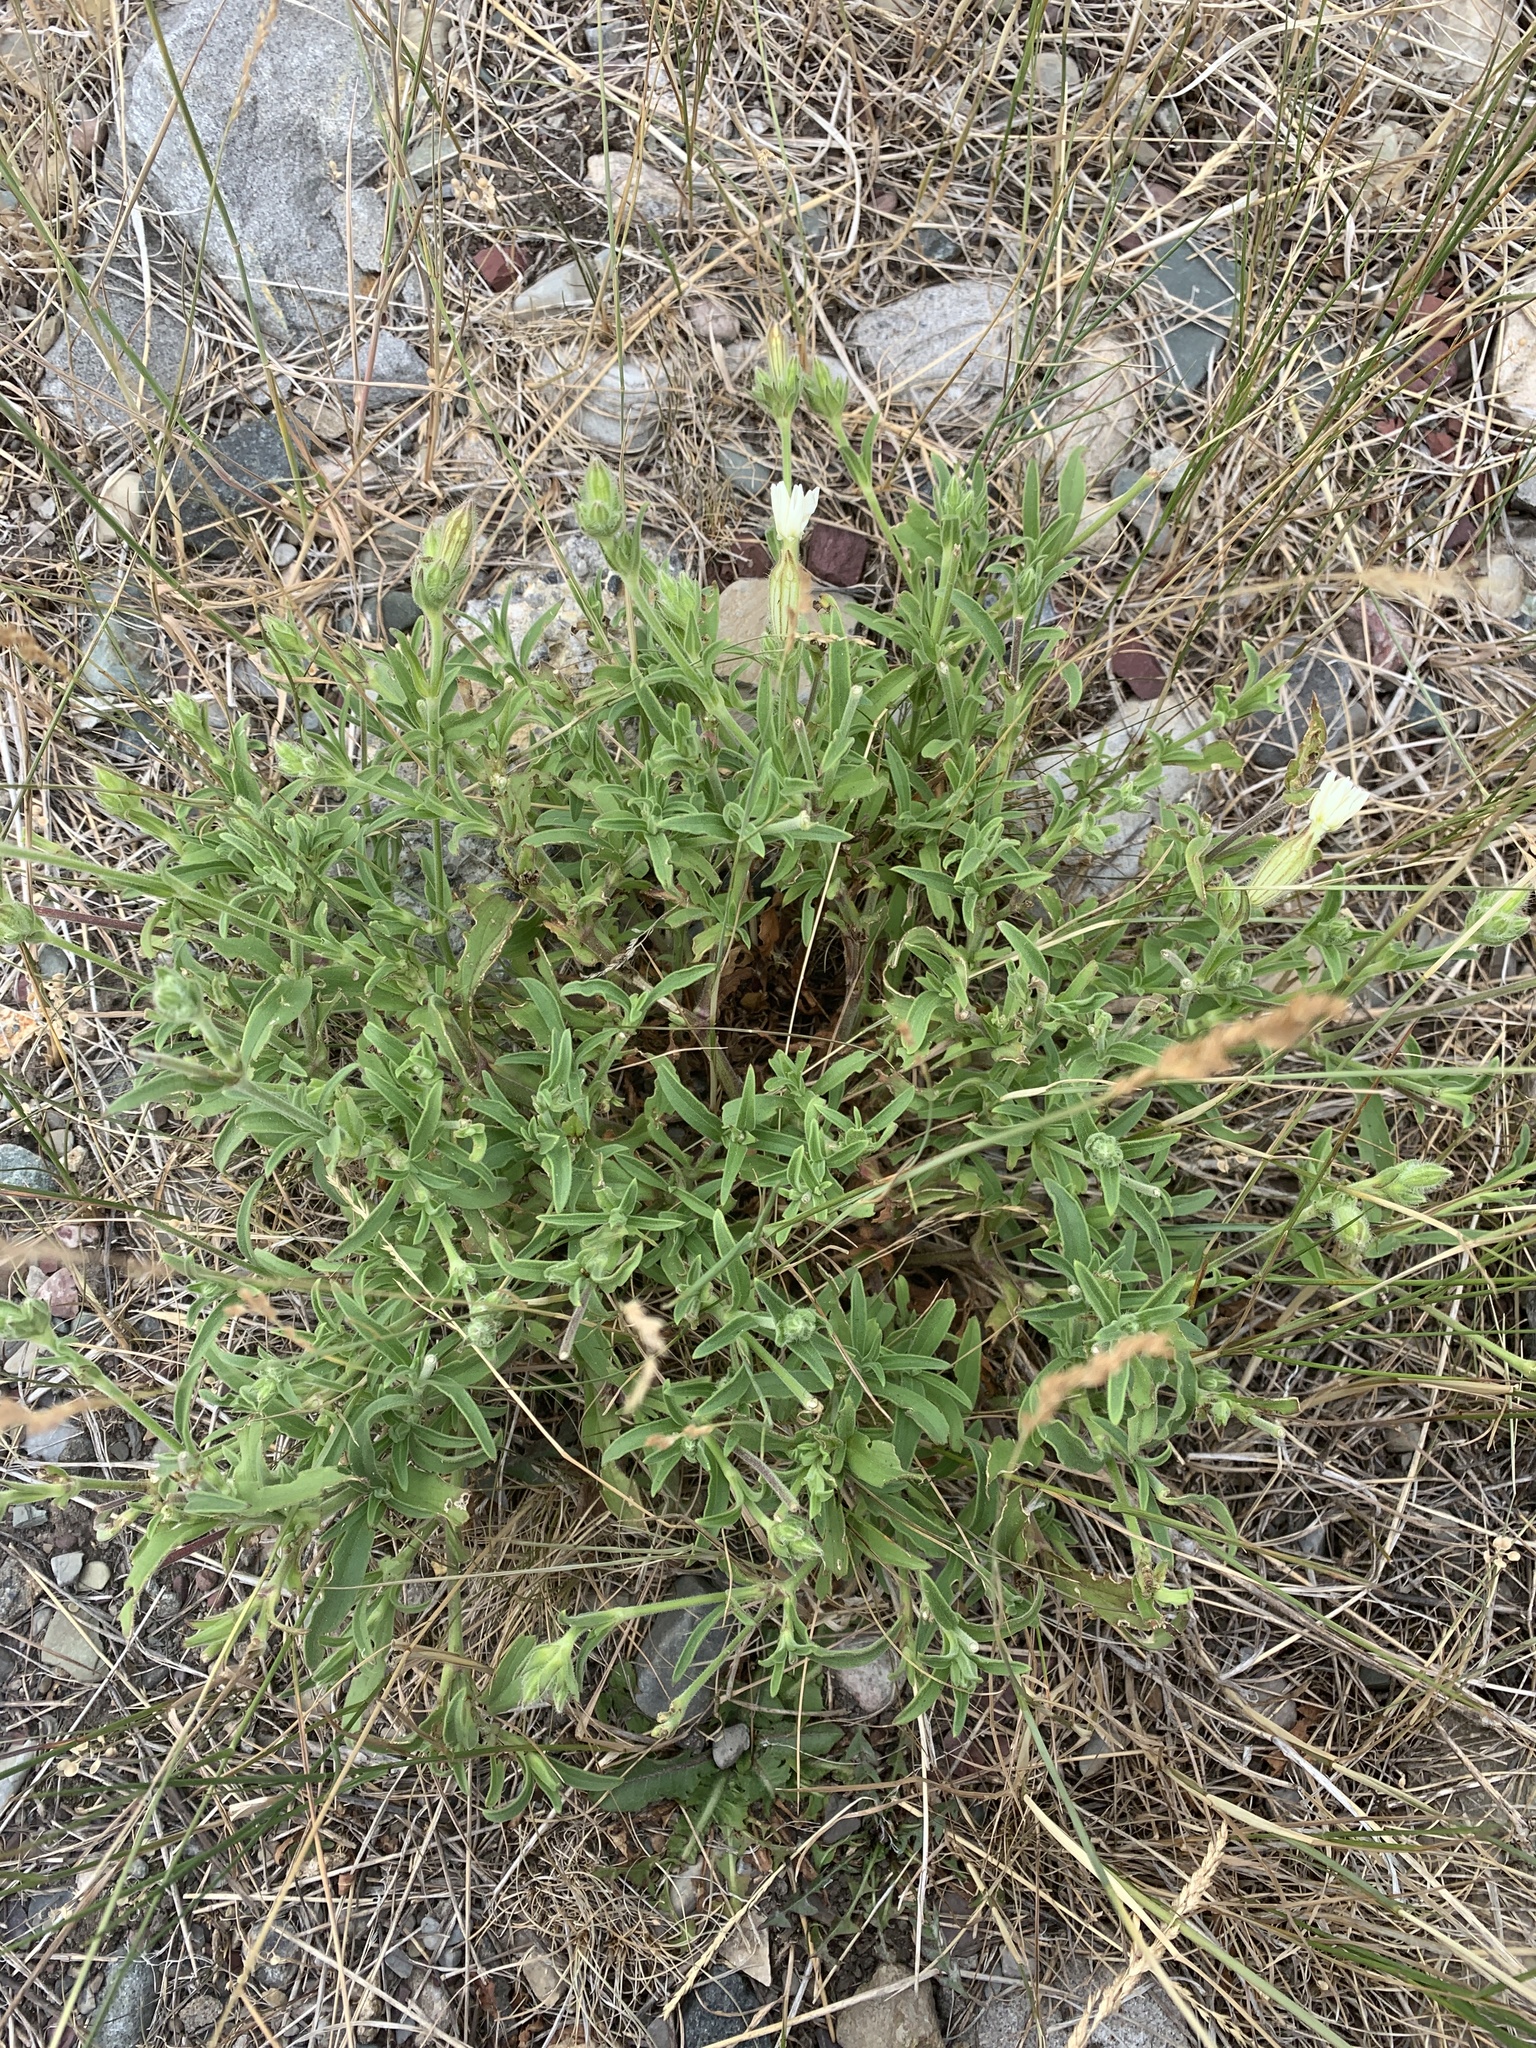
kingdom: Plantae
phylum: Tracheophyta
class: Magnoliopsida
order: Caryophyllales
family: Caryophyllaceae
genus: Silene
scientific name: Silene latifolia
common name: White campion
